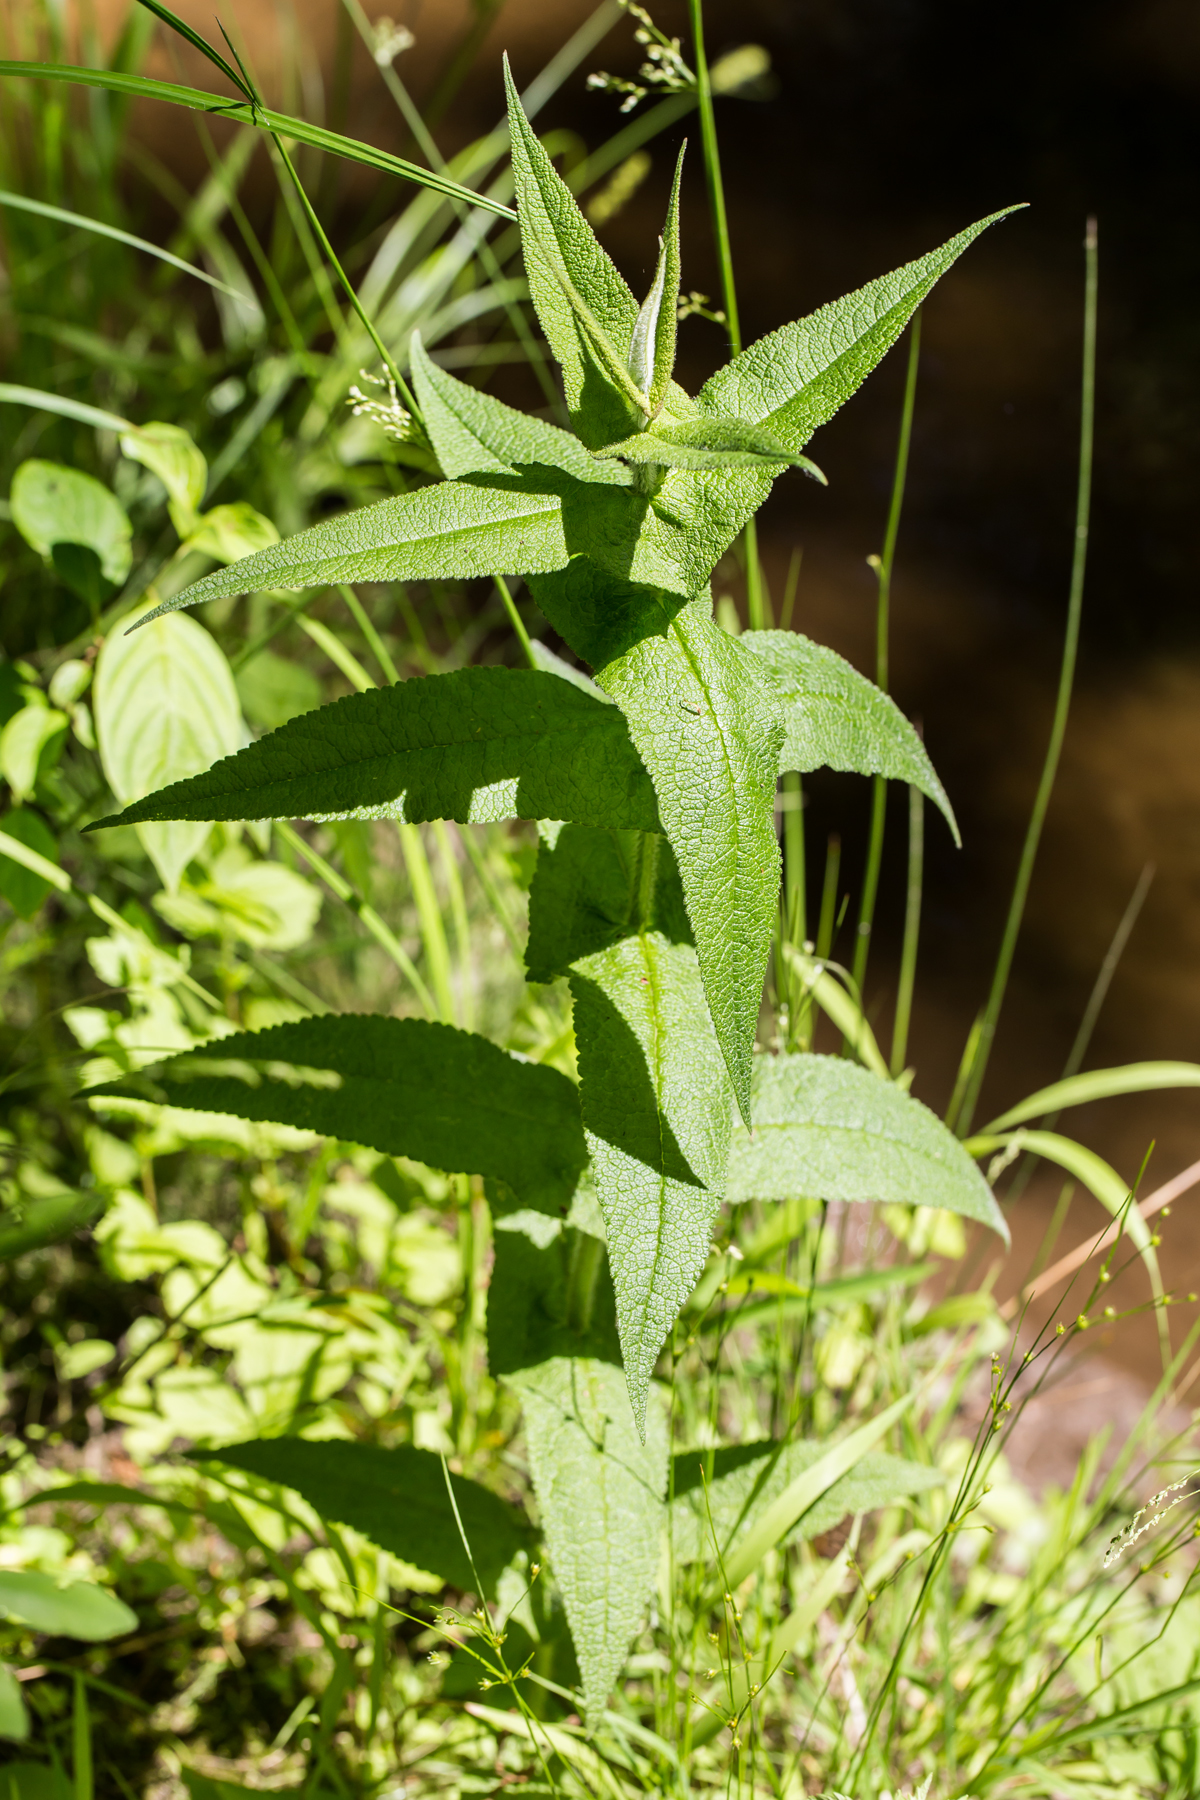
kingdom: Plantae
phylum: Tracheophyta
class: Magnoliopsida
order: Asterales
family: Asteraceae
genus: Eupatorium
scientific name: Eupatorium perfoliatum
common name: Boneset
